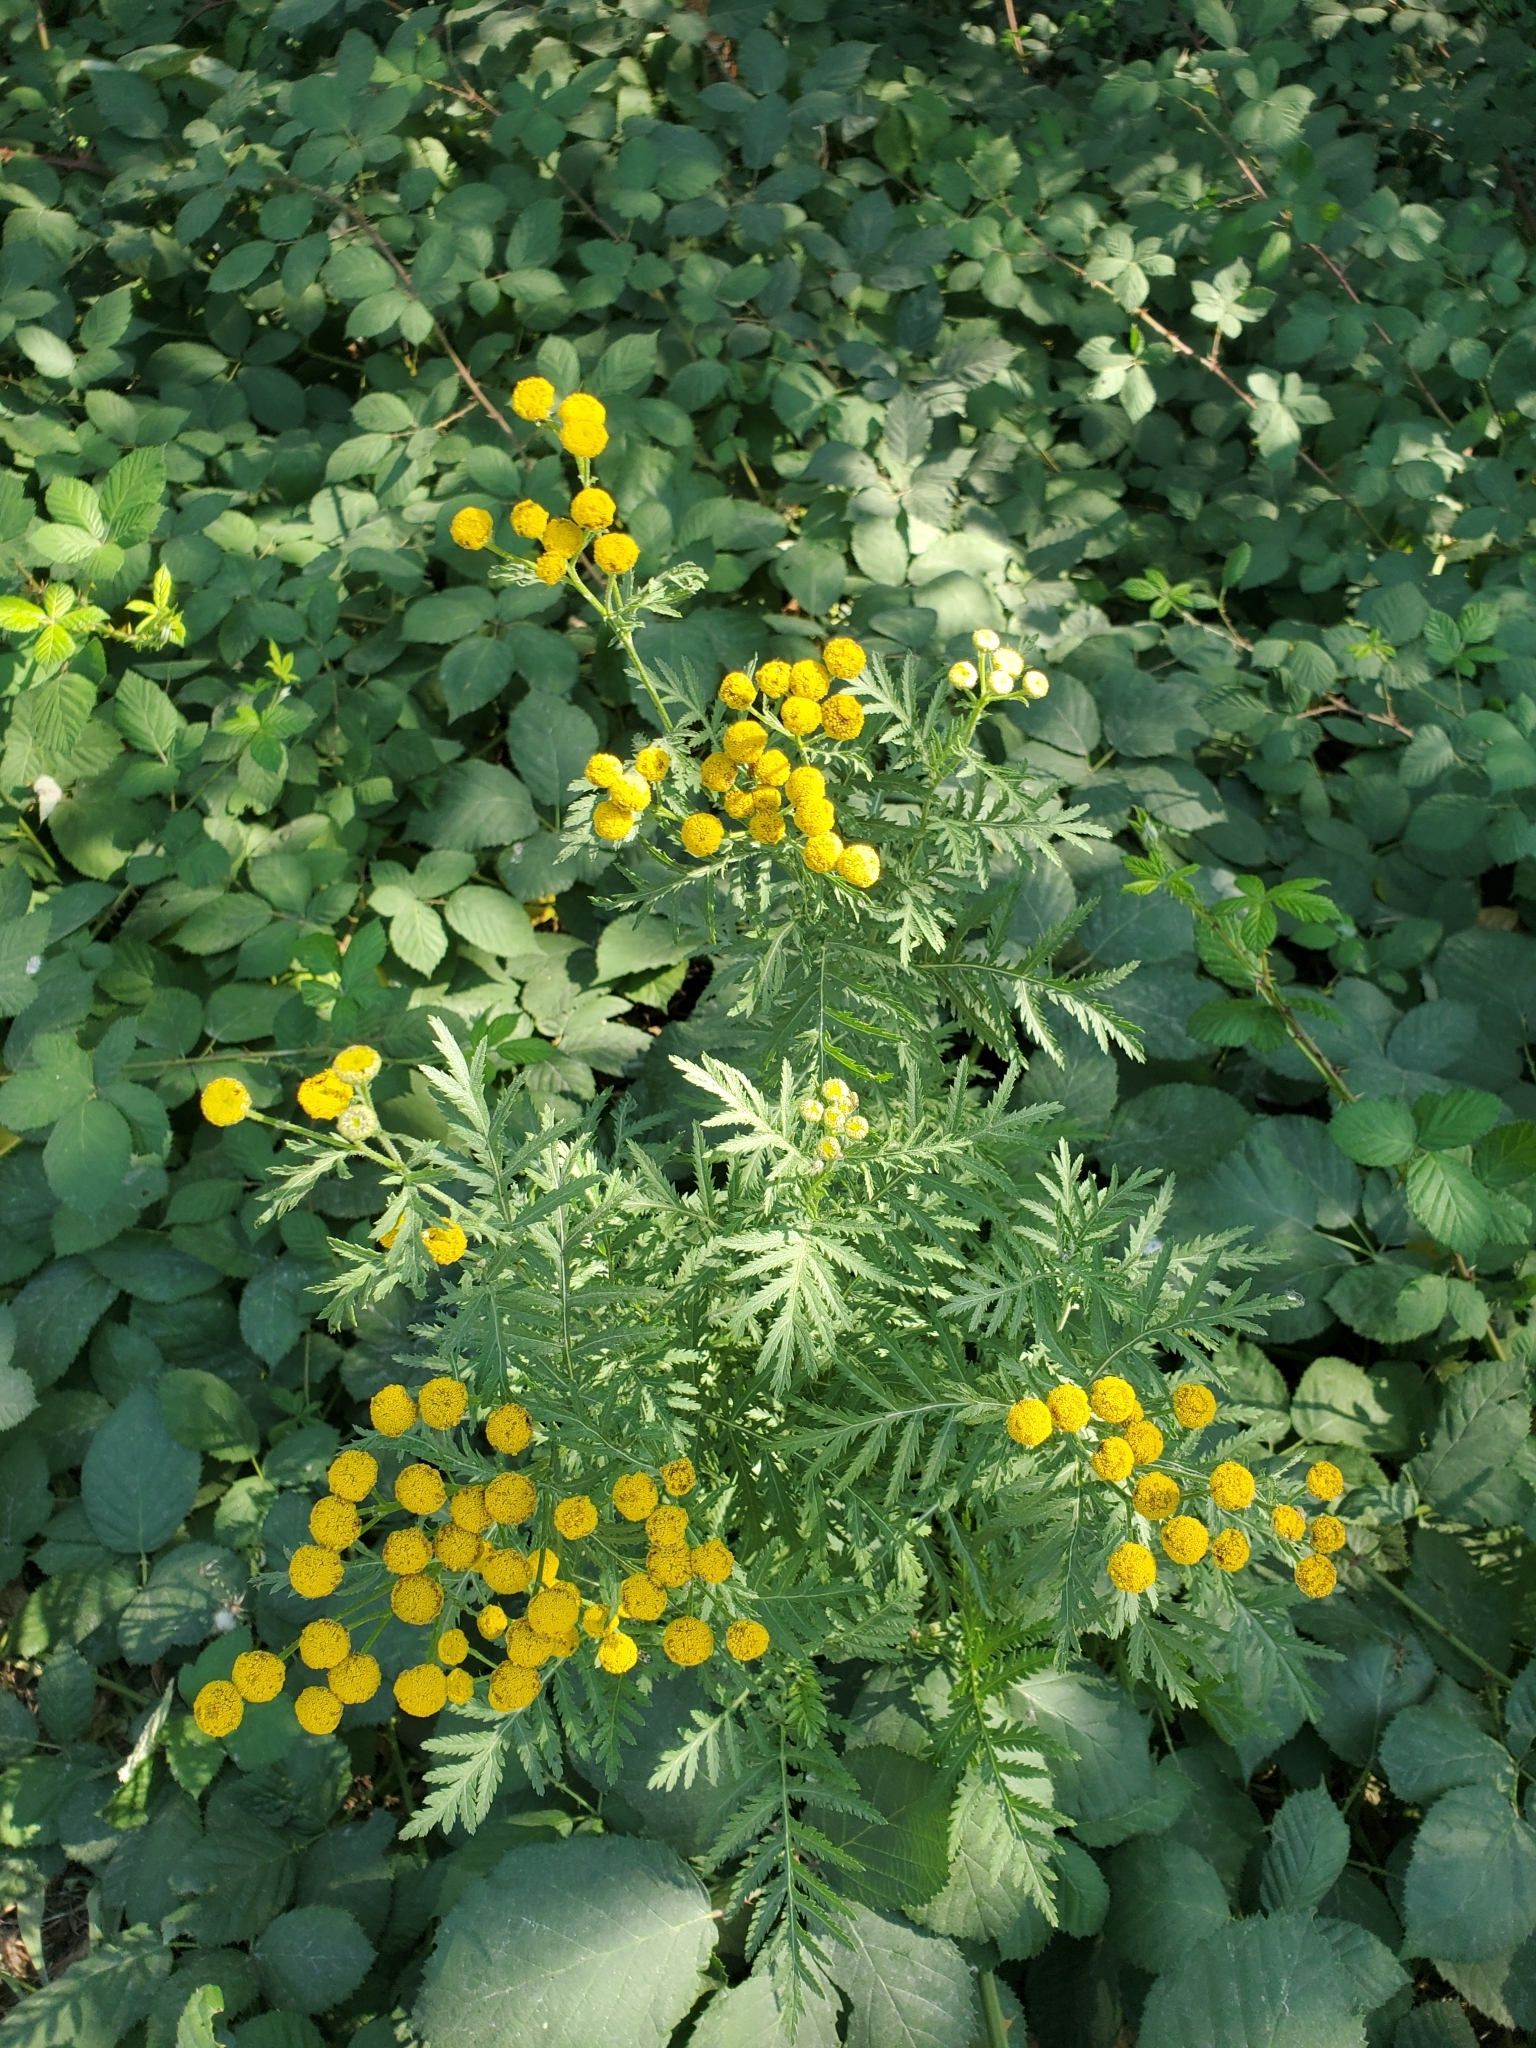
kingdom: Plantae
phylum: Tracheophyta
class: Magnoliopsida
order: Asterales
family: Asteraceae
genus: Tanacetum
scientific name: Tanacetum vulgare
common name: Common tansy
